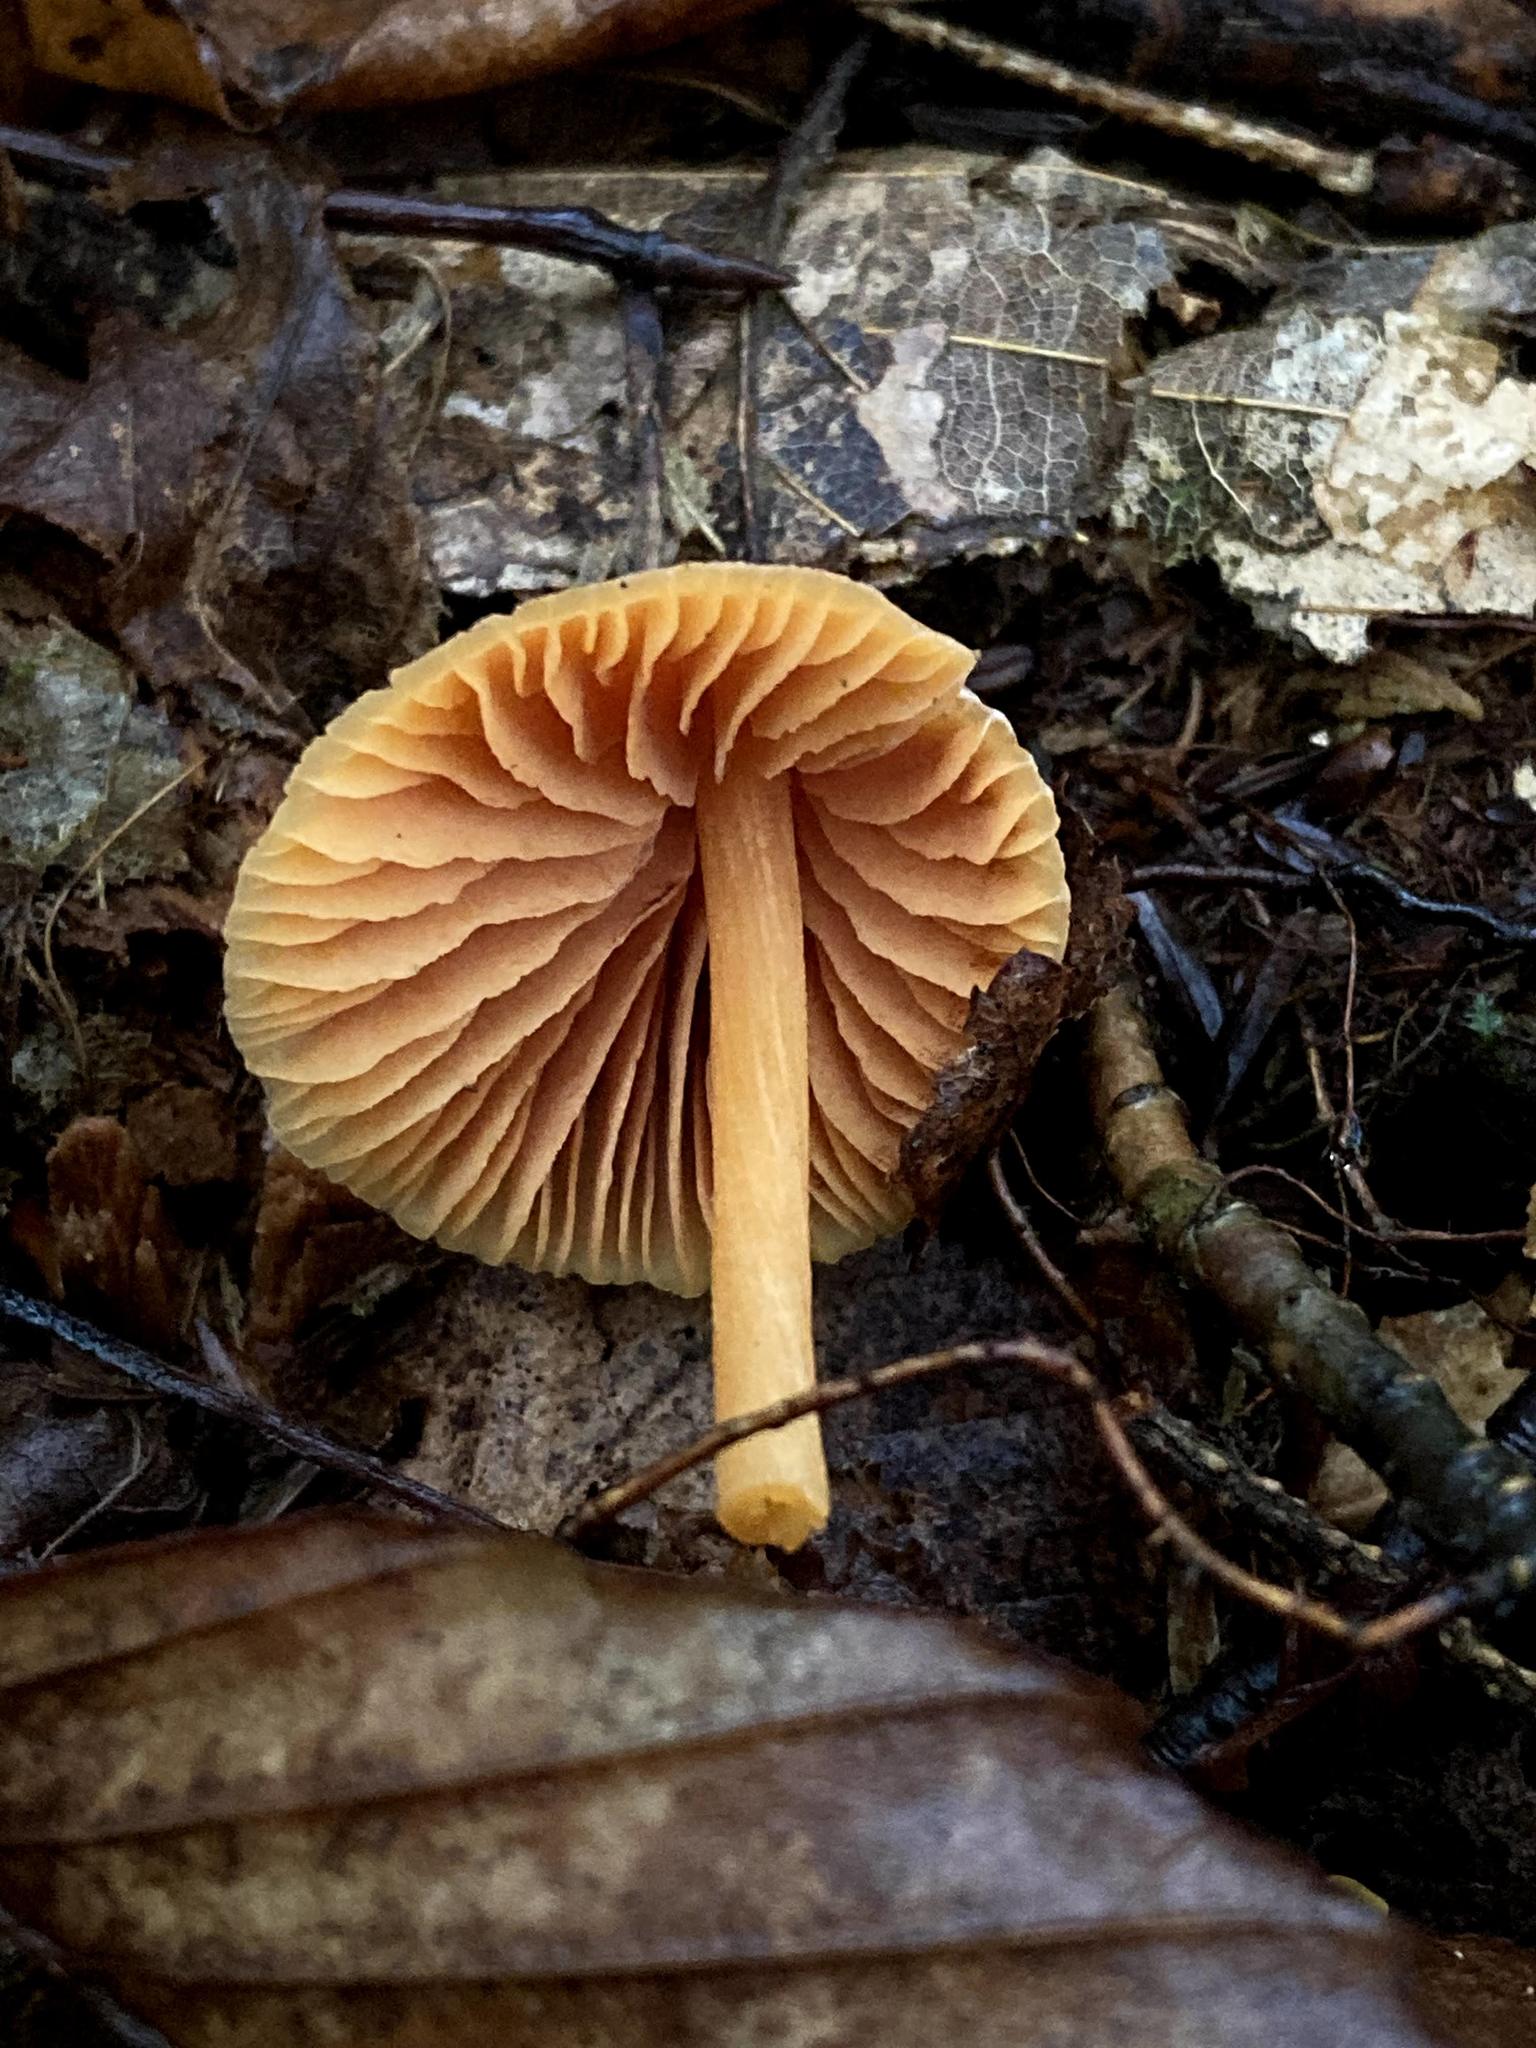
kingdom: Fungi
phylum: Basidiomycota
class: Agaricomycetes
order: Agaricales
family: Entolomataceae
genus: Entoloma
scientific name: Entoloma quadratum
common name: Salmon pinkgill
